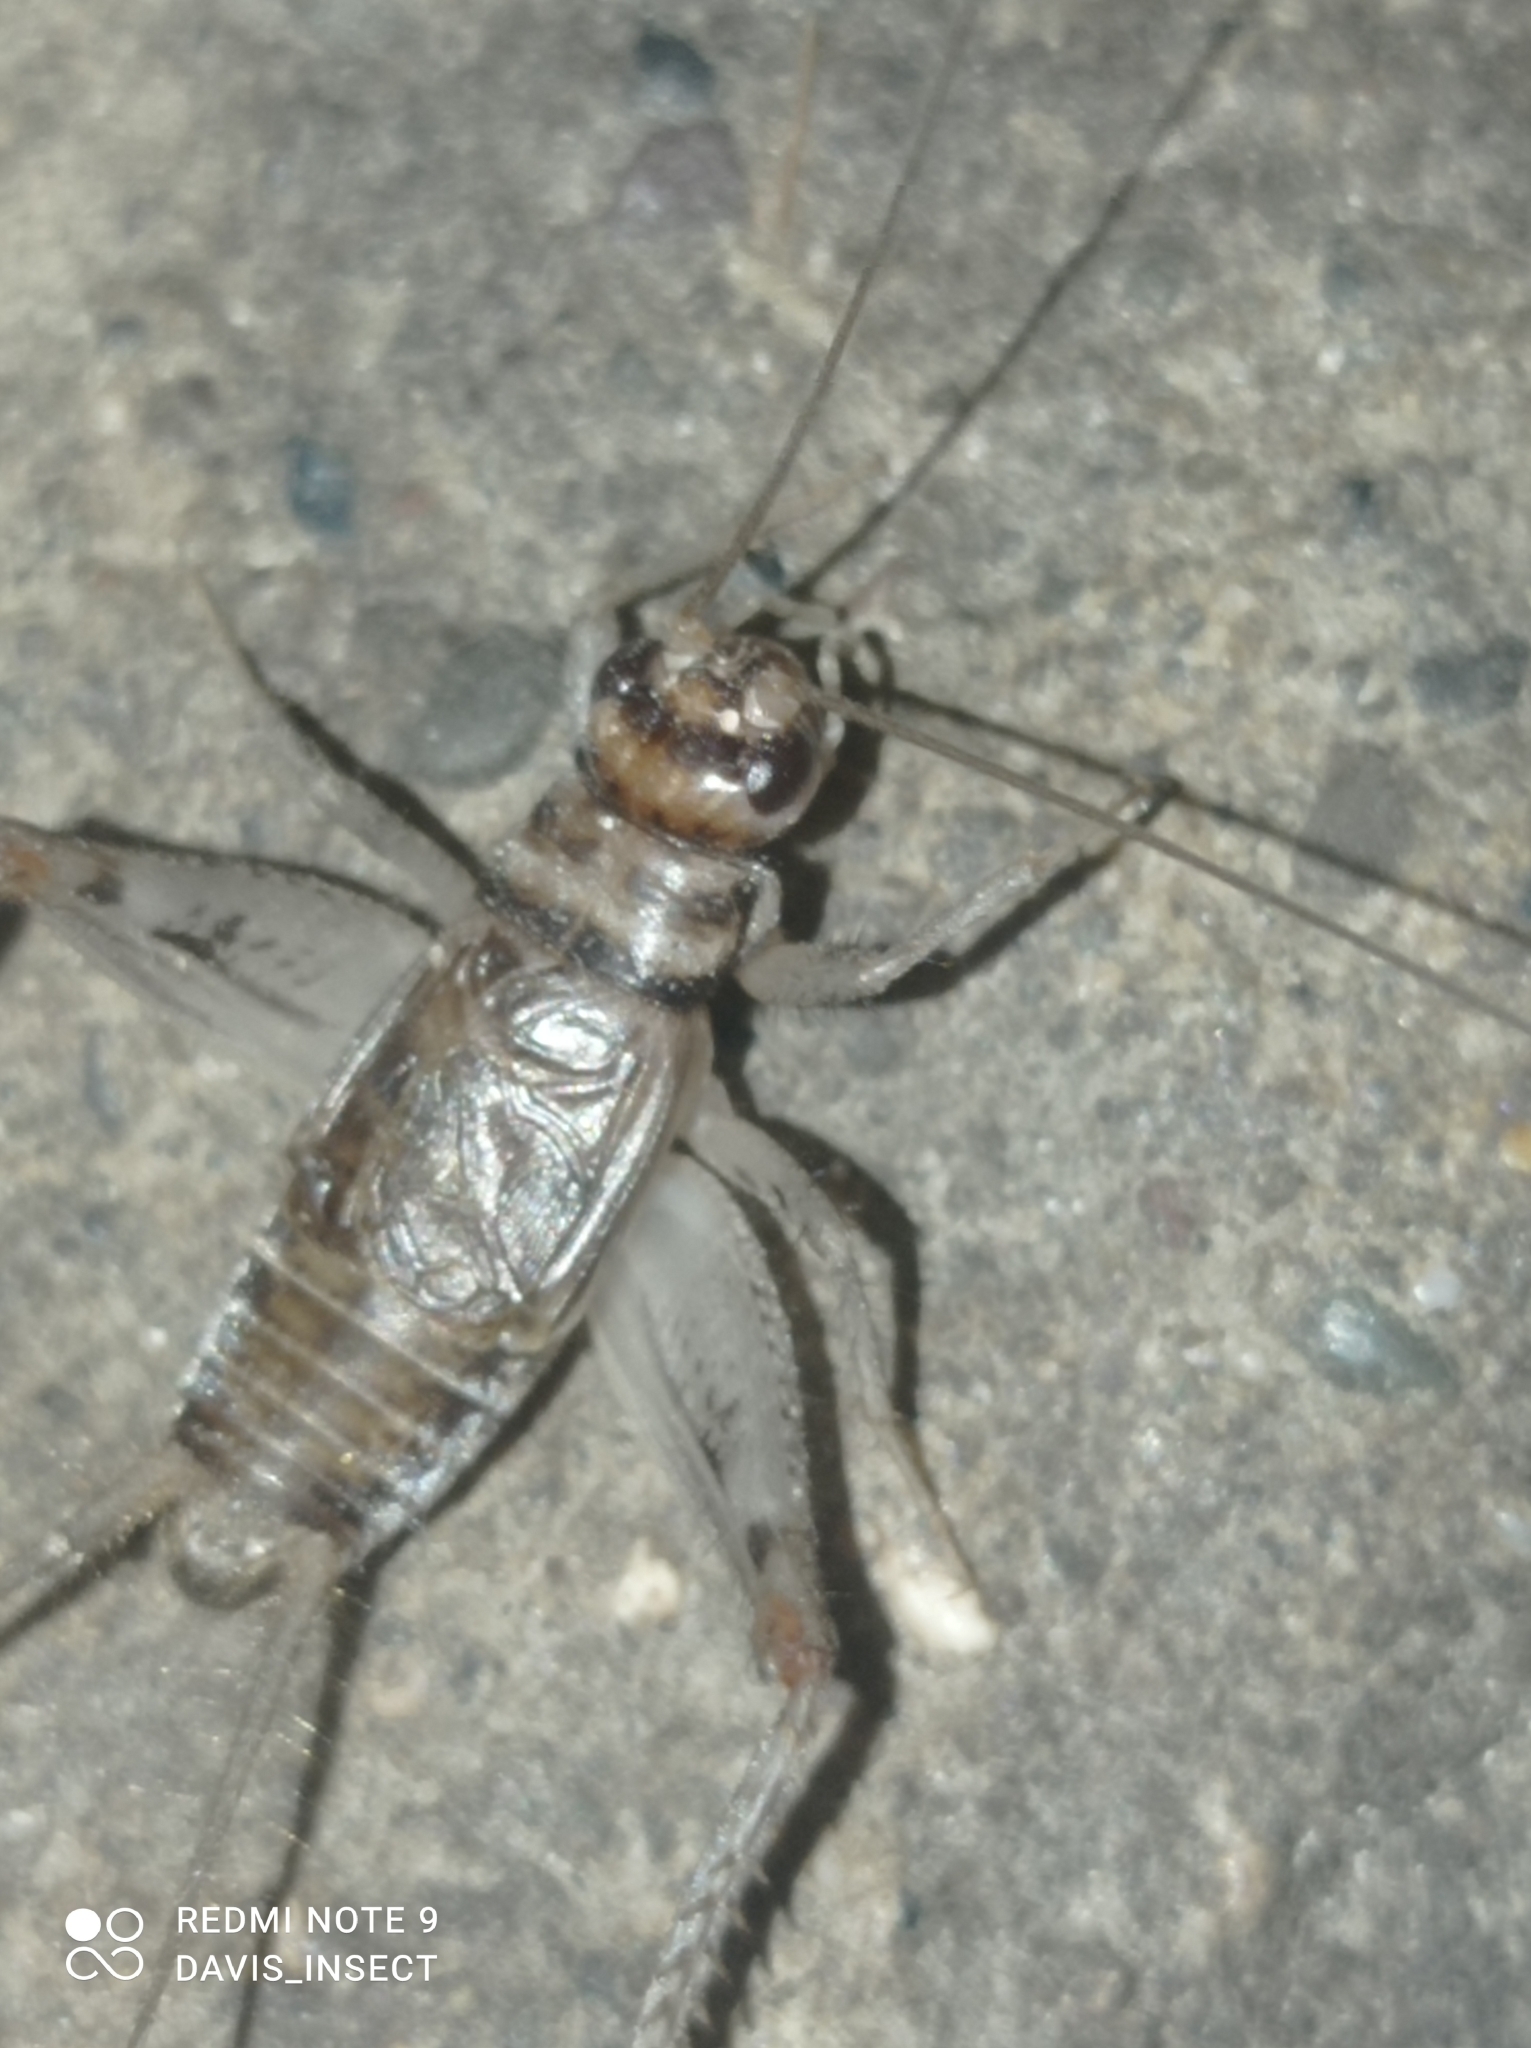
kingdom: Animalia
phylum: Arthropoda
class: Insecta
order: Orthoptera
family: Gryllidae
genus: Gryllodes
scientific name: Gryllodes sigillatus
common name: Tropical house cricket
